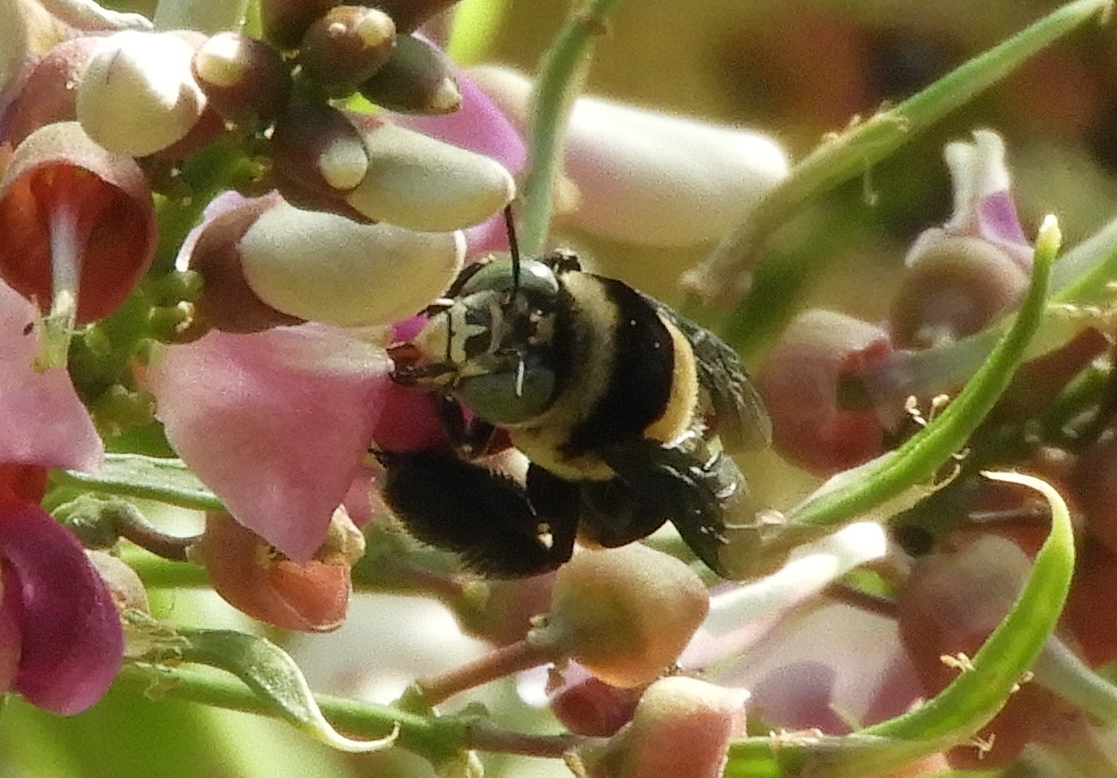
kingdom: Animalia
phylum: Arthropoda
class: Insecta
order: Hymenoptera
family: Apidae
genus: Centris
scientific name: Centris flavofasciata
